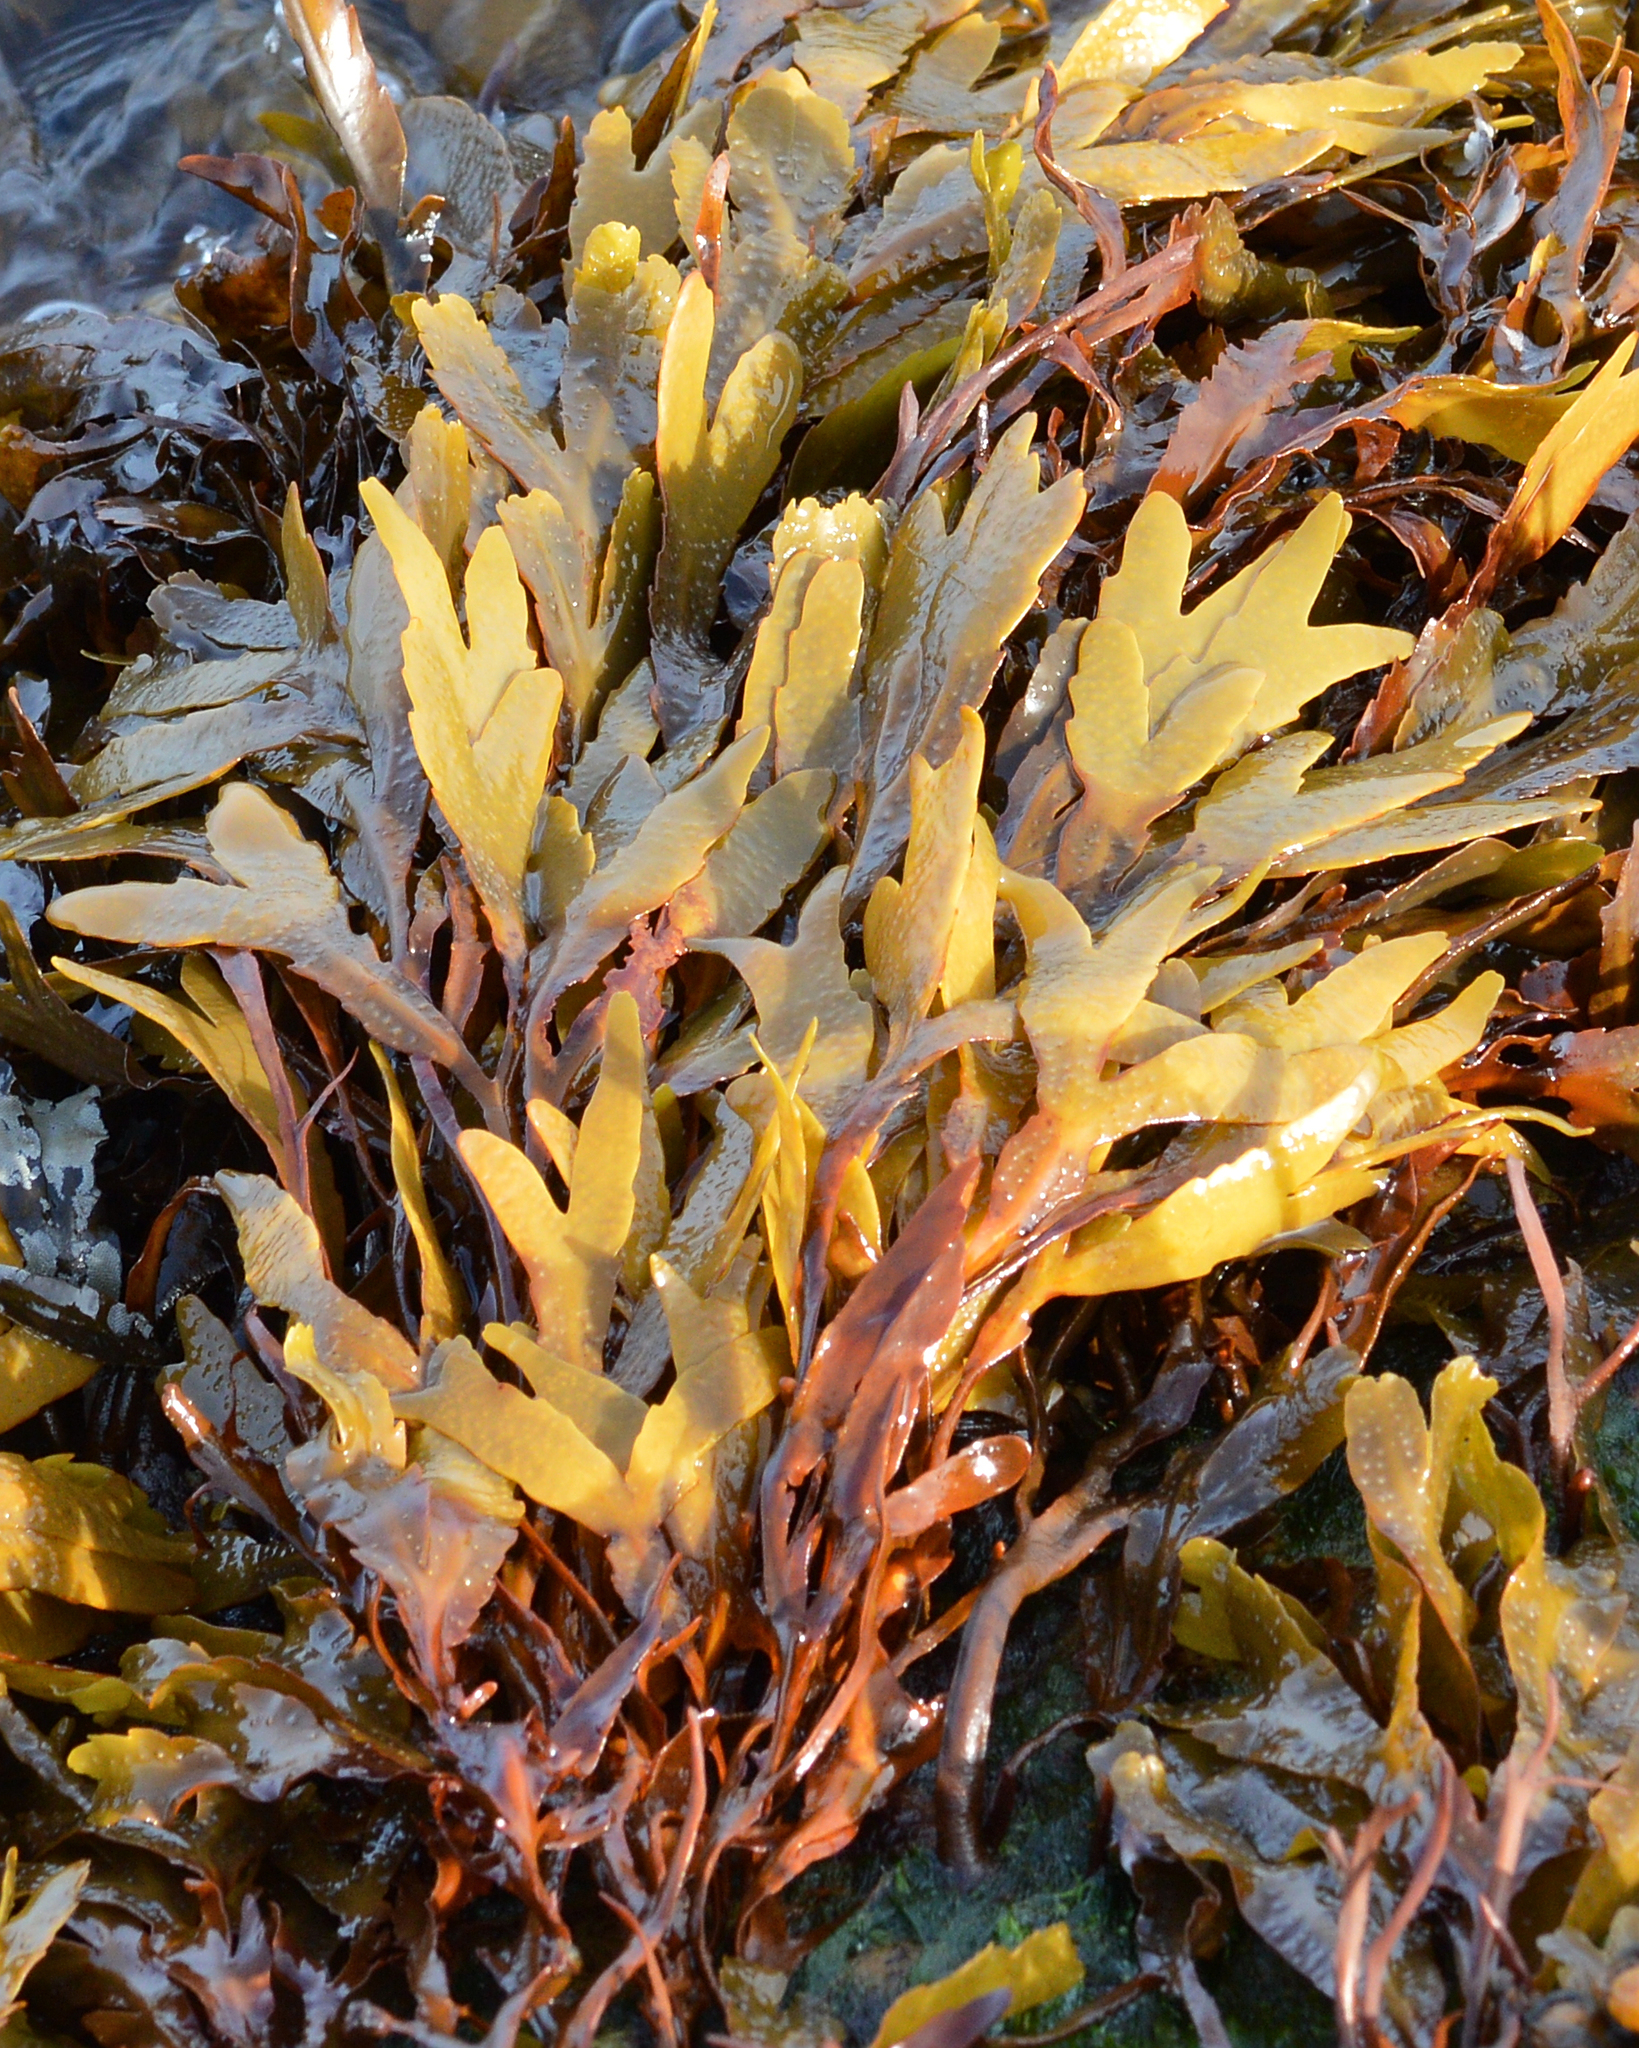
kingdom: Chromista
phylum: Ochrophyta
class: Phaeophyceae
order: Fucales
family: Fucaceae
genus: Fucus
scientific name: Fucus serratus
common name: Toothed wrack
